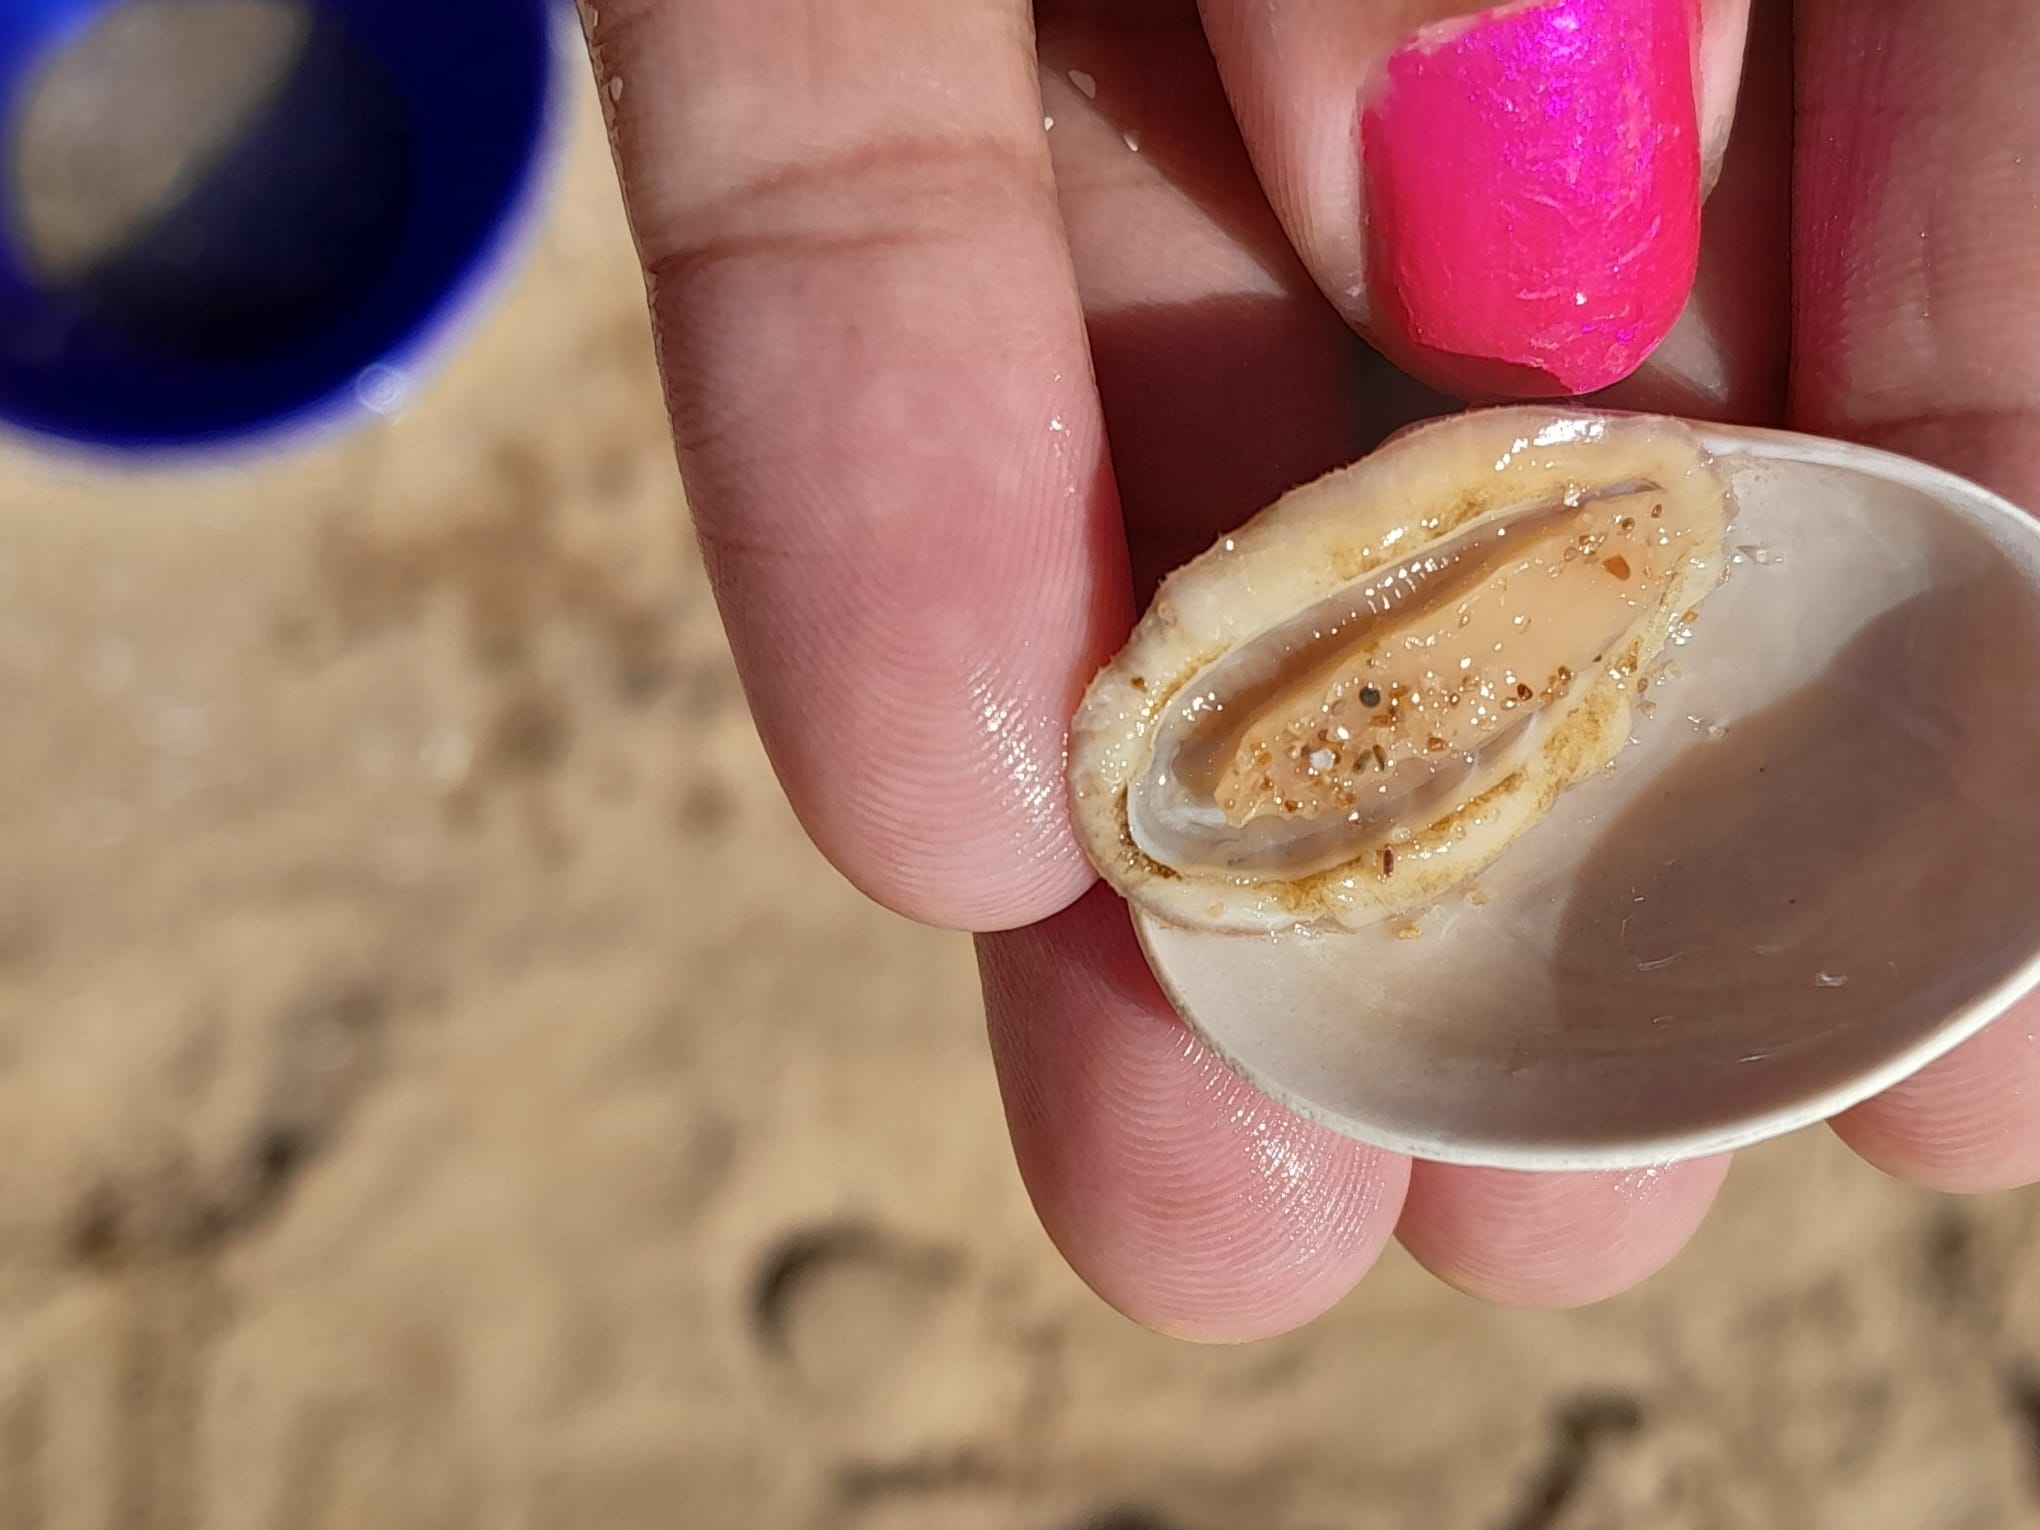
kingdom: Animalia
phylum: Mollusca
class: Polyplacophora
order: Chitonida
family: Chaetopleuridae
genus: Chaetopleura
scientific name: Chaetopleura isabellei
